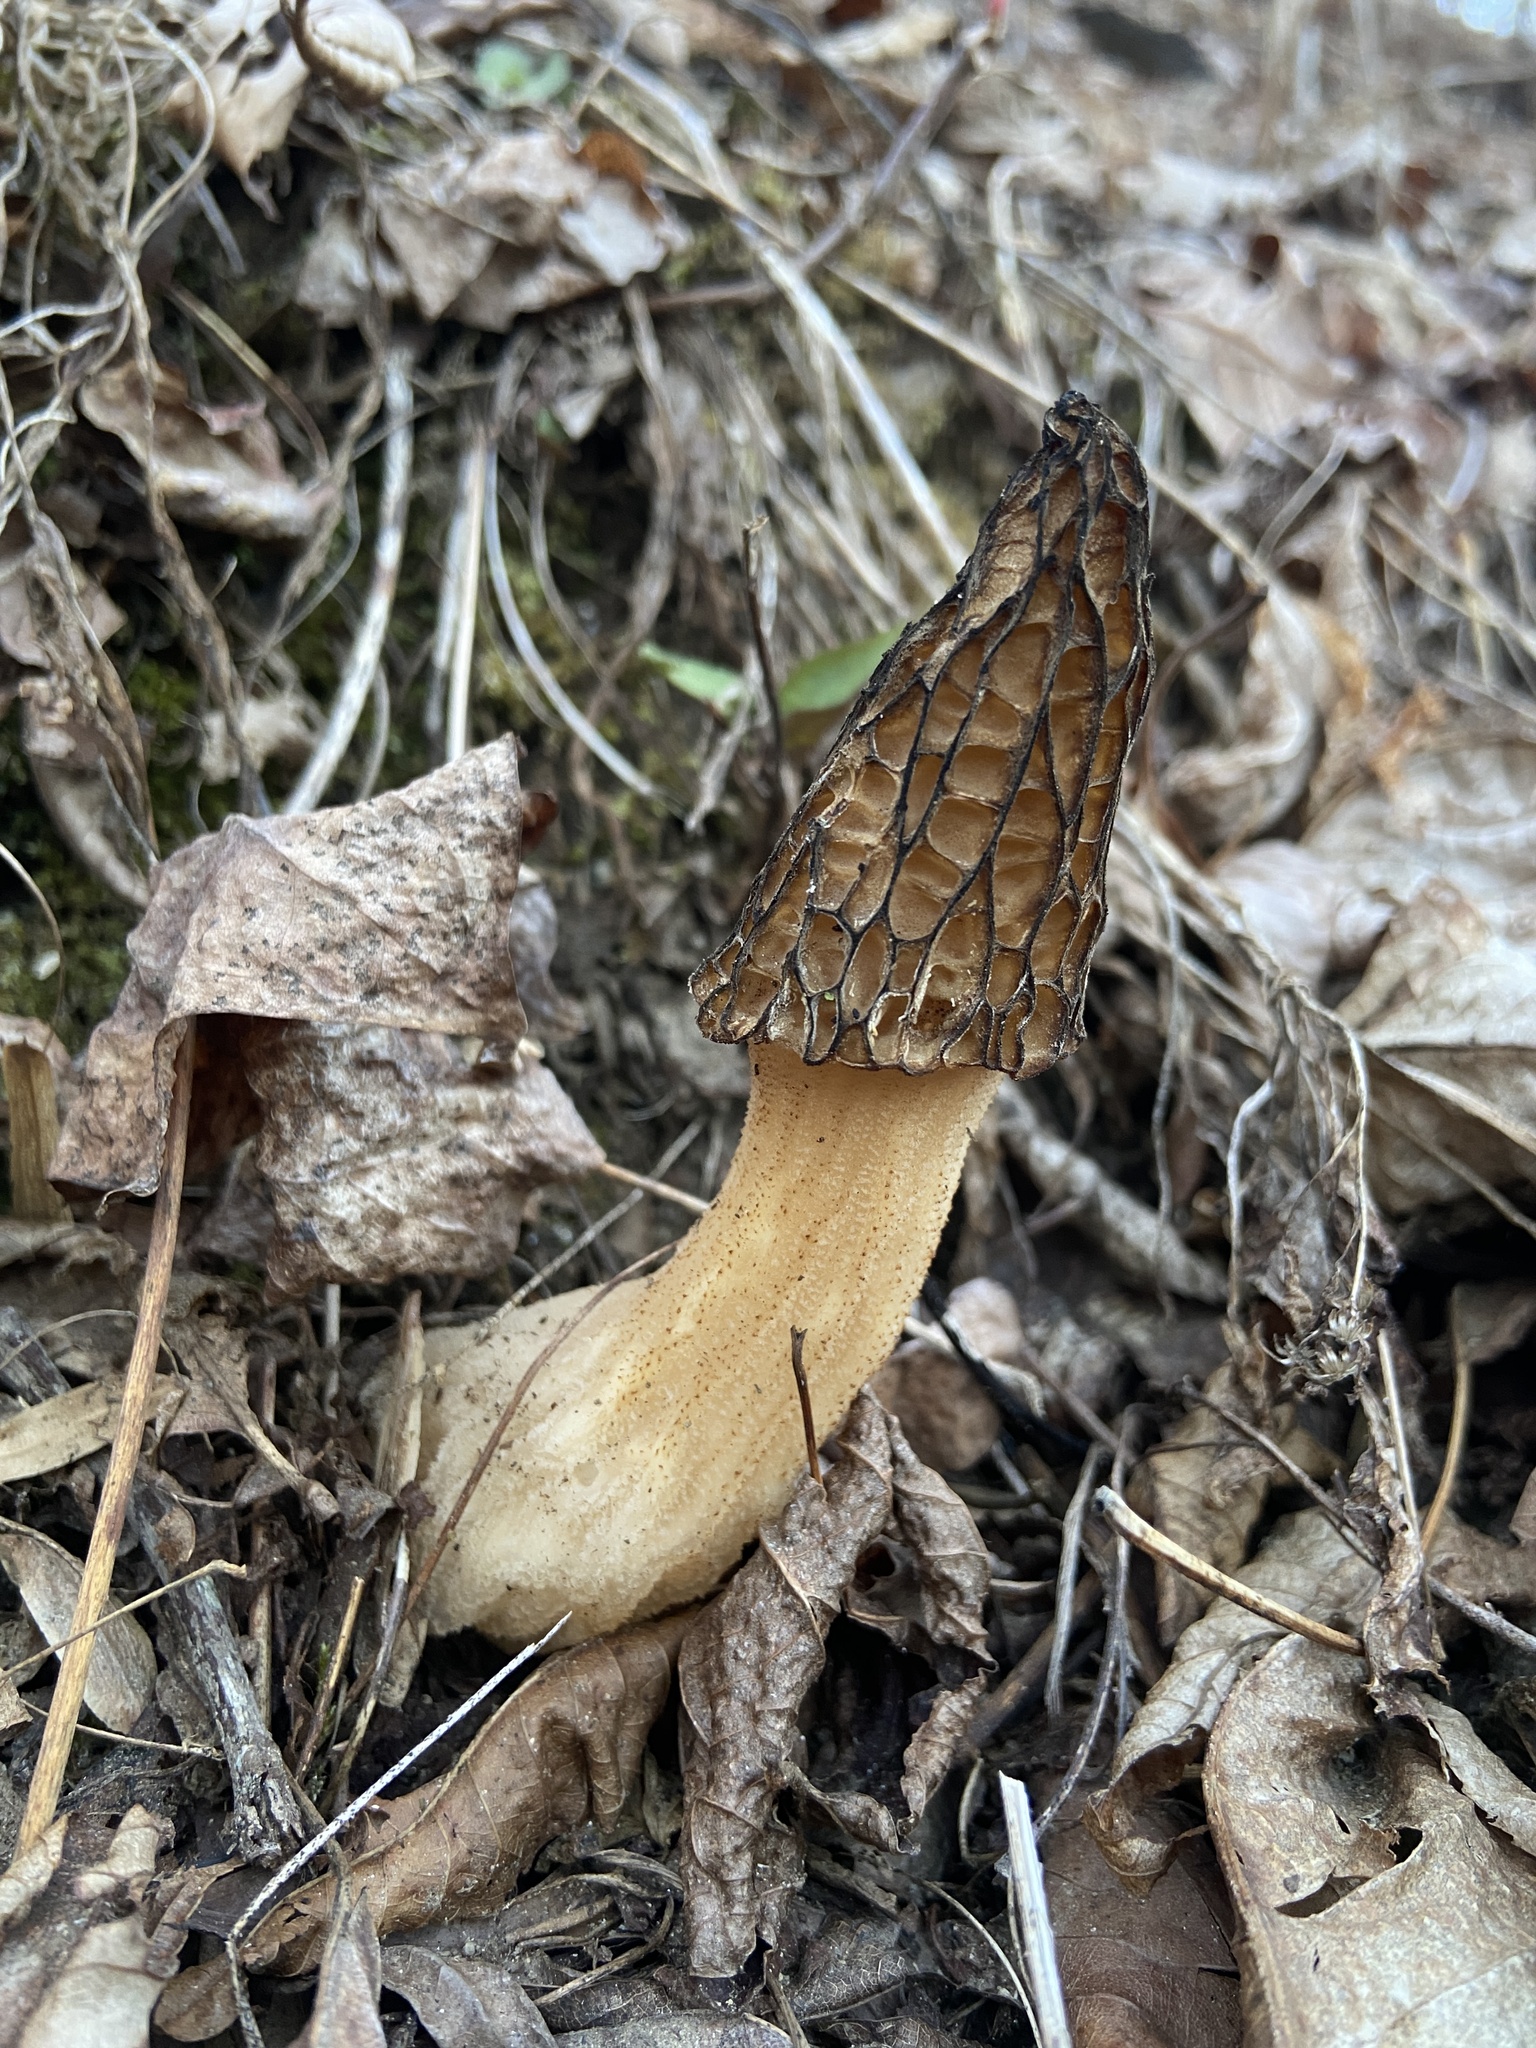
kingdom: Fungi
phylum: Ascomycota
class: Pezizomycetes
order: Pezizales
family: Morchellaceae
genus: Morchella
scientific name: Morchella angusticeps
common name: Black morel
